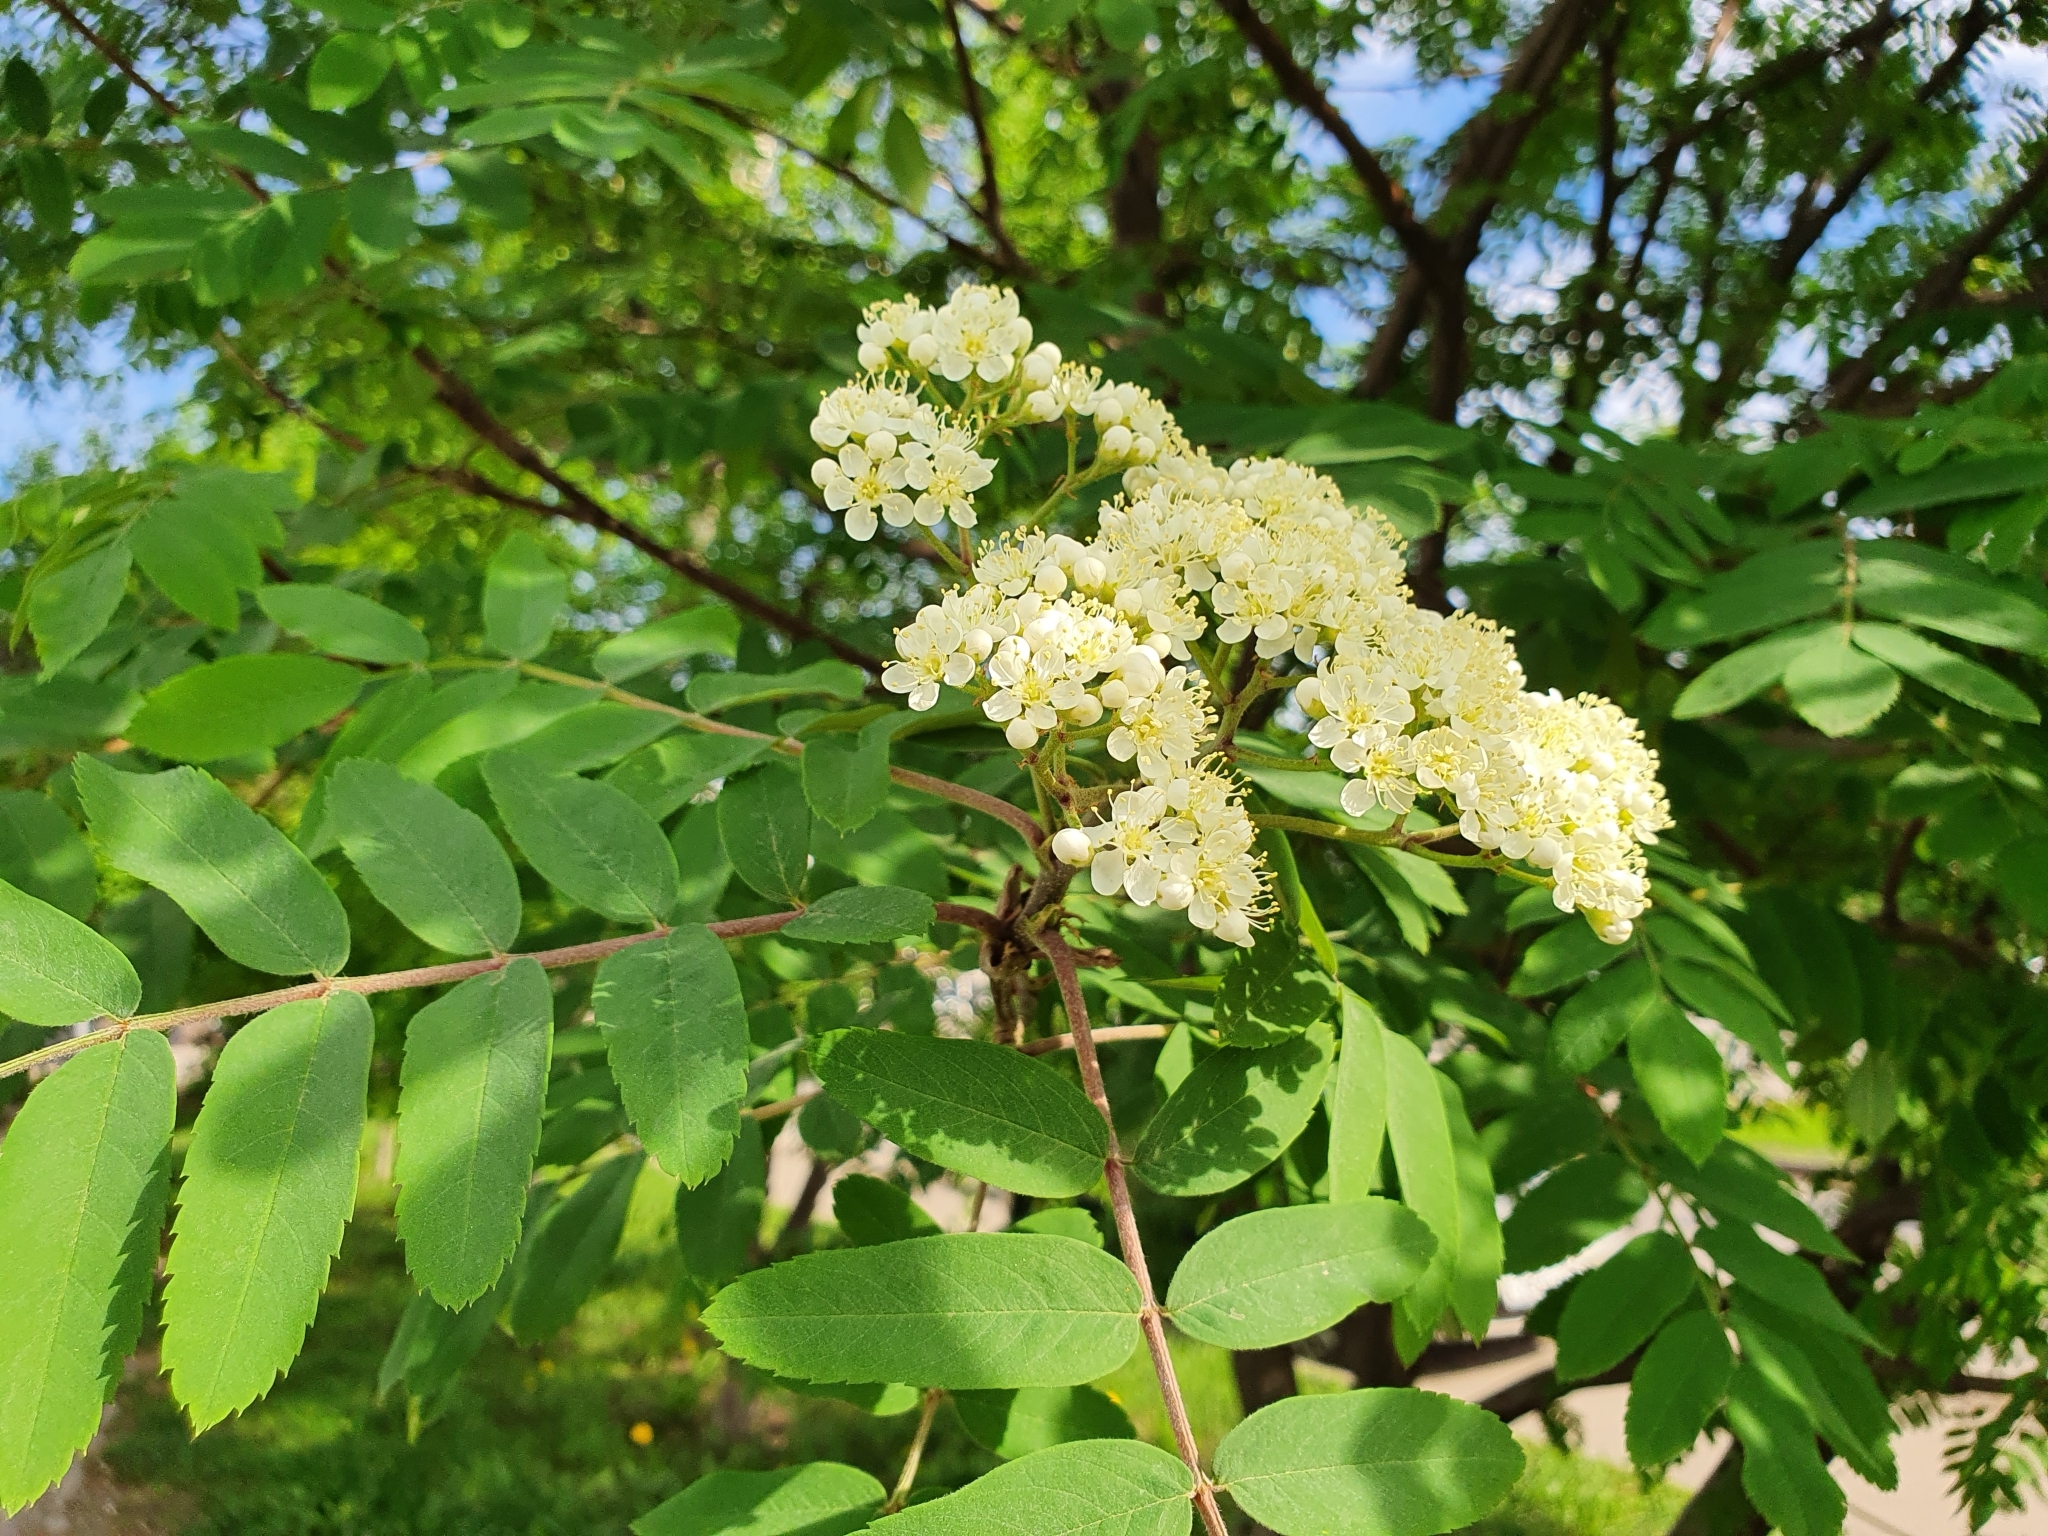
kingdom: Plantae
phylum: Tracheophyta
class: Magnoliopsida
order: Rosales
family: Rosaceae
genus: Sorbus
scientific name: Sorbus aucuparia
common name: Rowan
